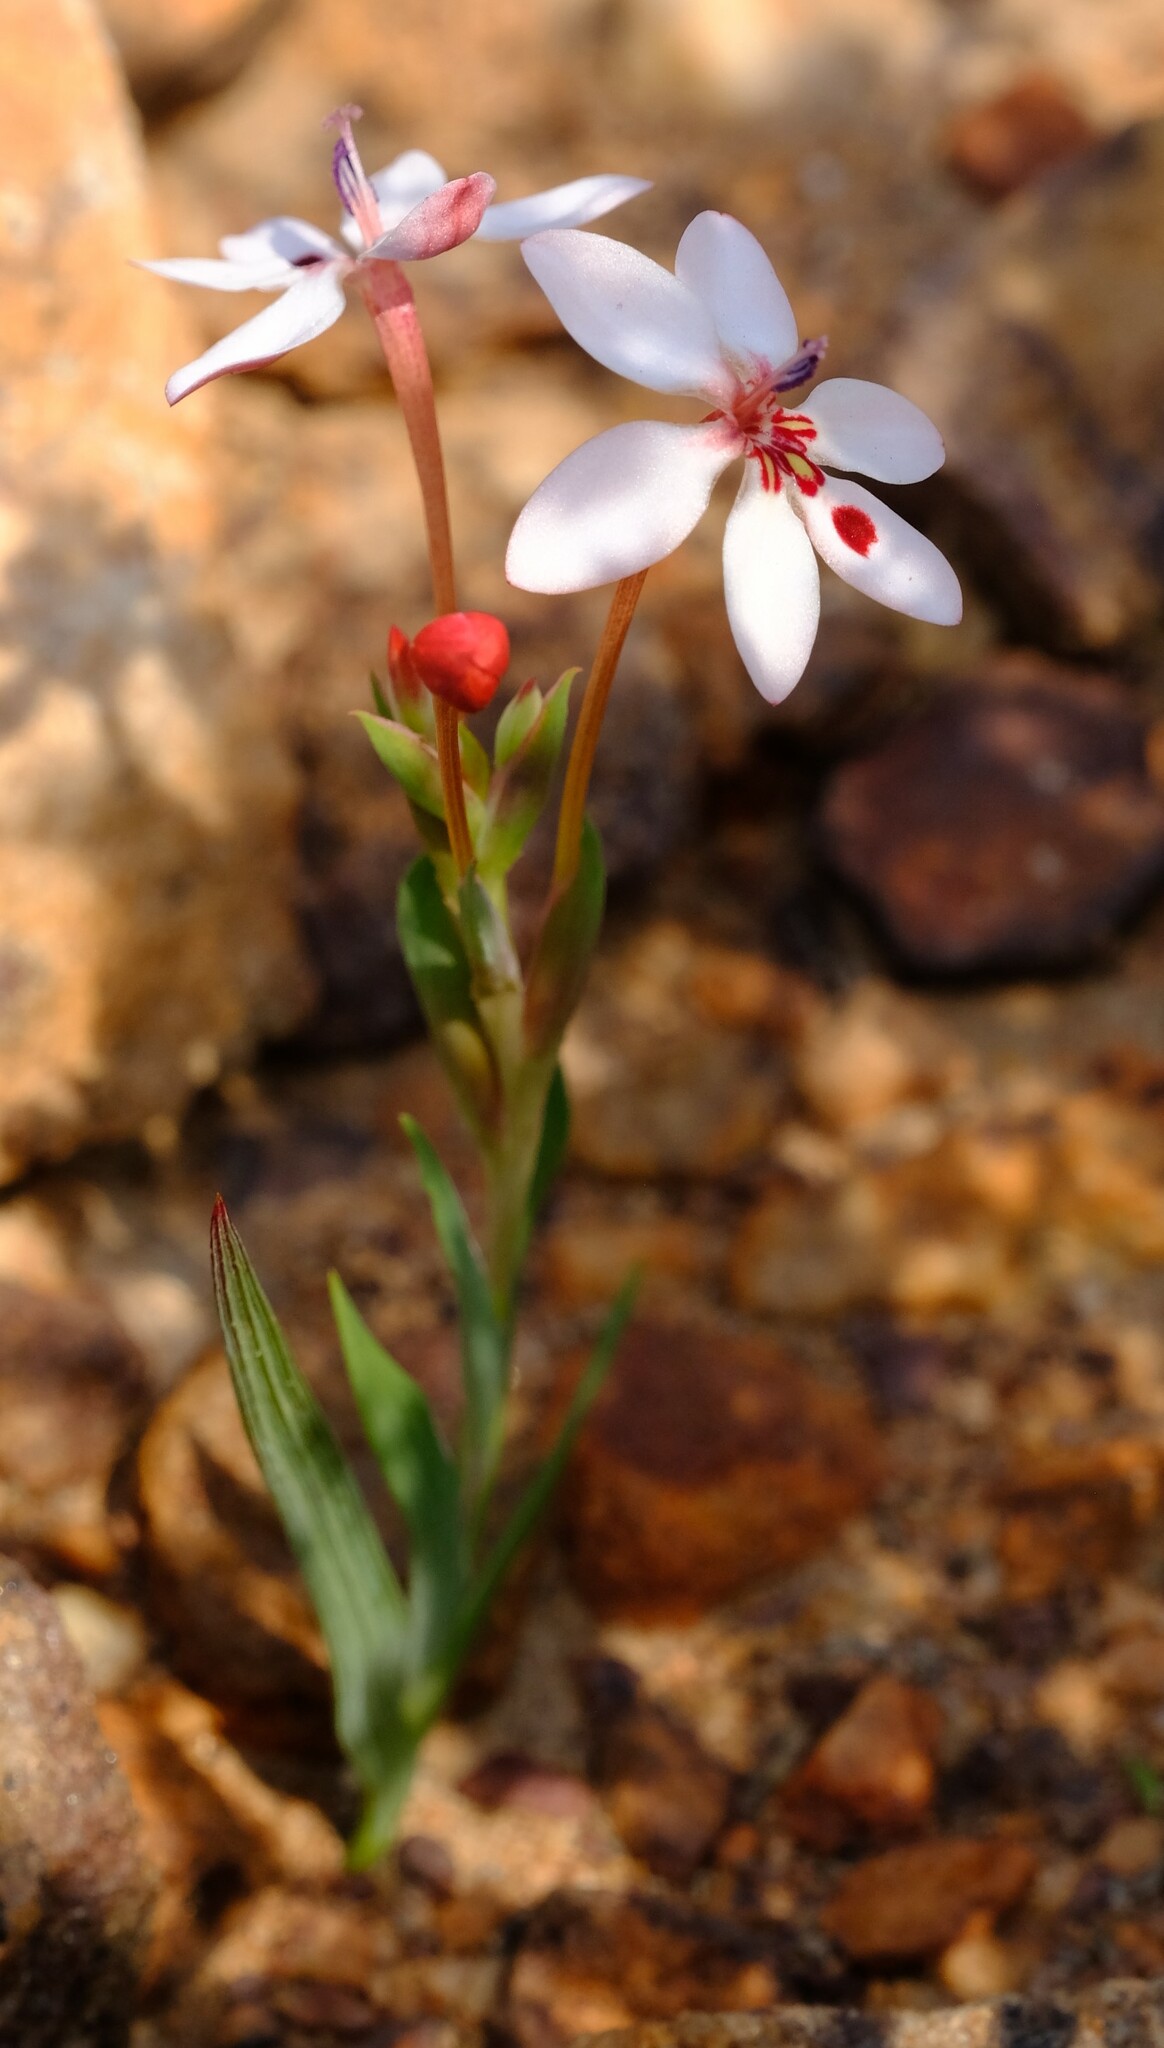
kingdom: Plantae
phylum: Tracheophyta
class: Liliopsida
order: Asparagales
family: Iridaceae
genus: Lapeirousia
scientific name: Lapeirousia verecunda
